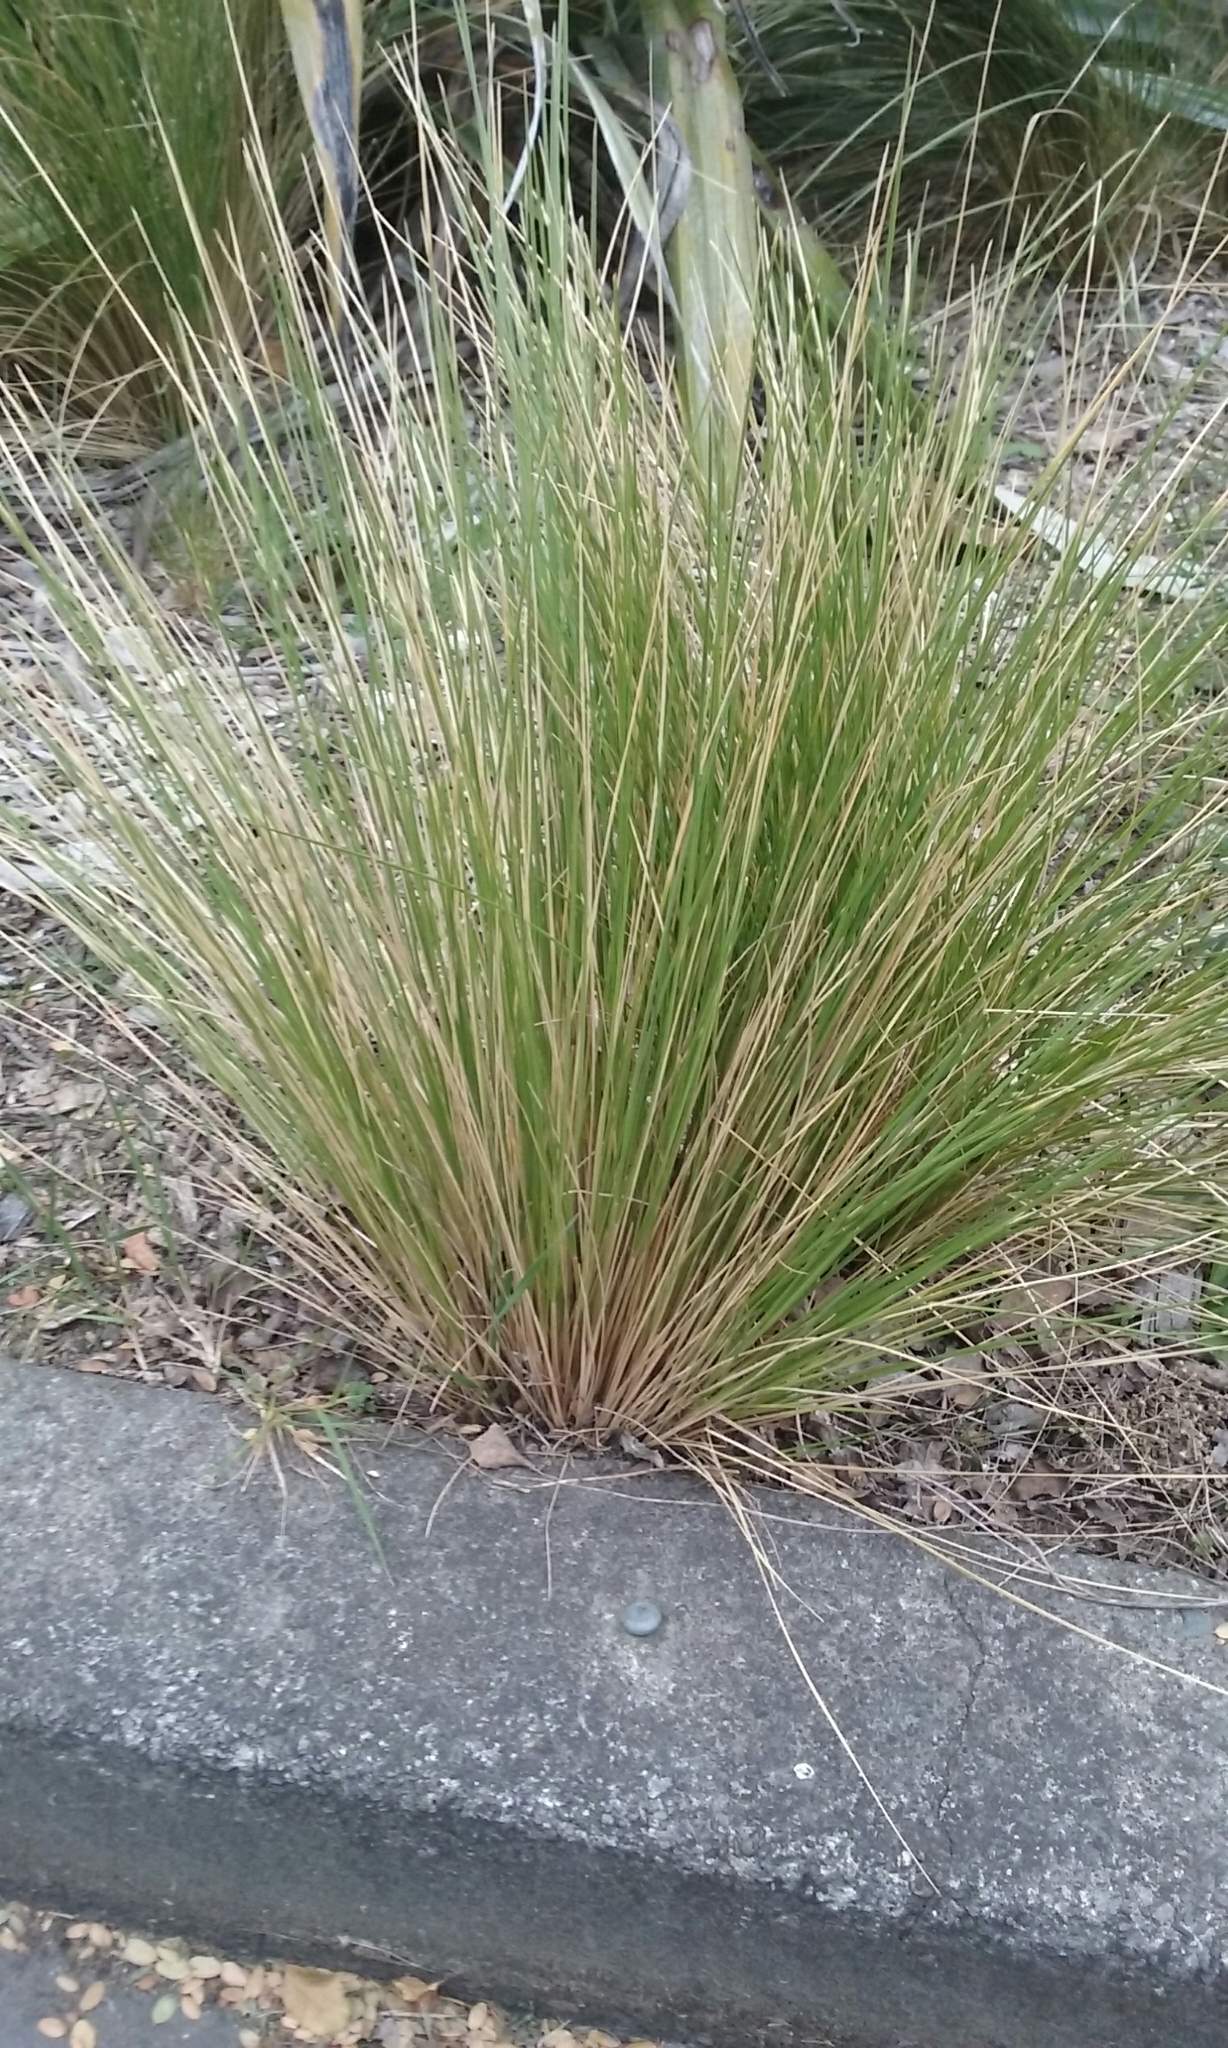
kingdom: Plantae
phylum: Tracheophyta
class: Liliopsida
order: Poales
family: Poaceae
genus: Poa
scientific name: Poa cita
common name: Silver tussock
